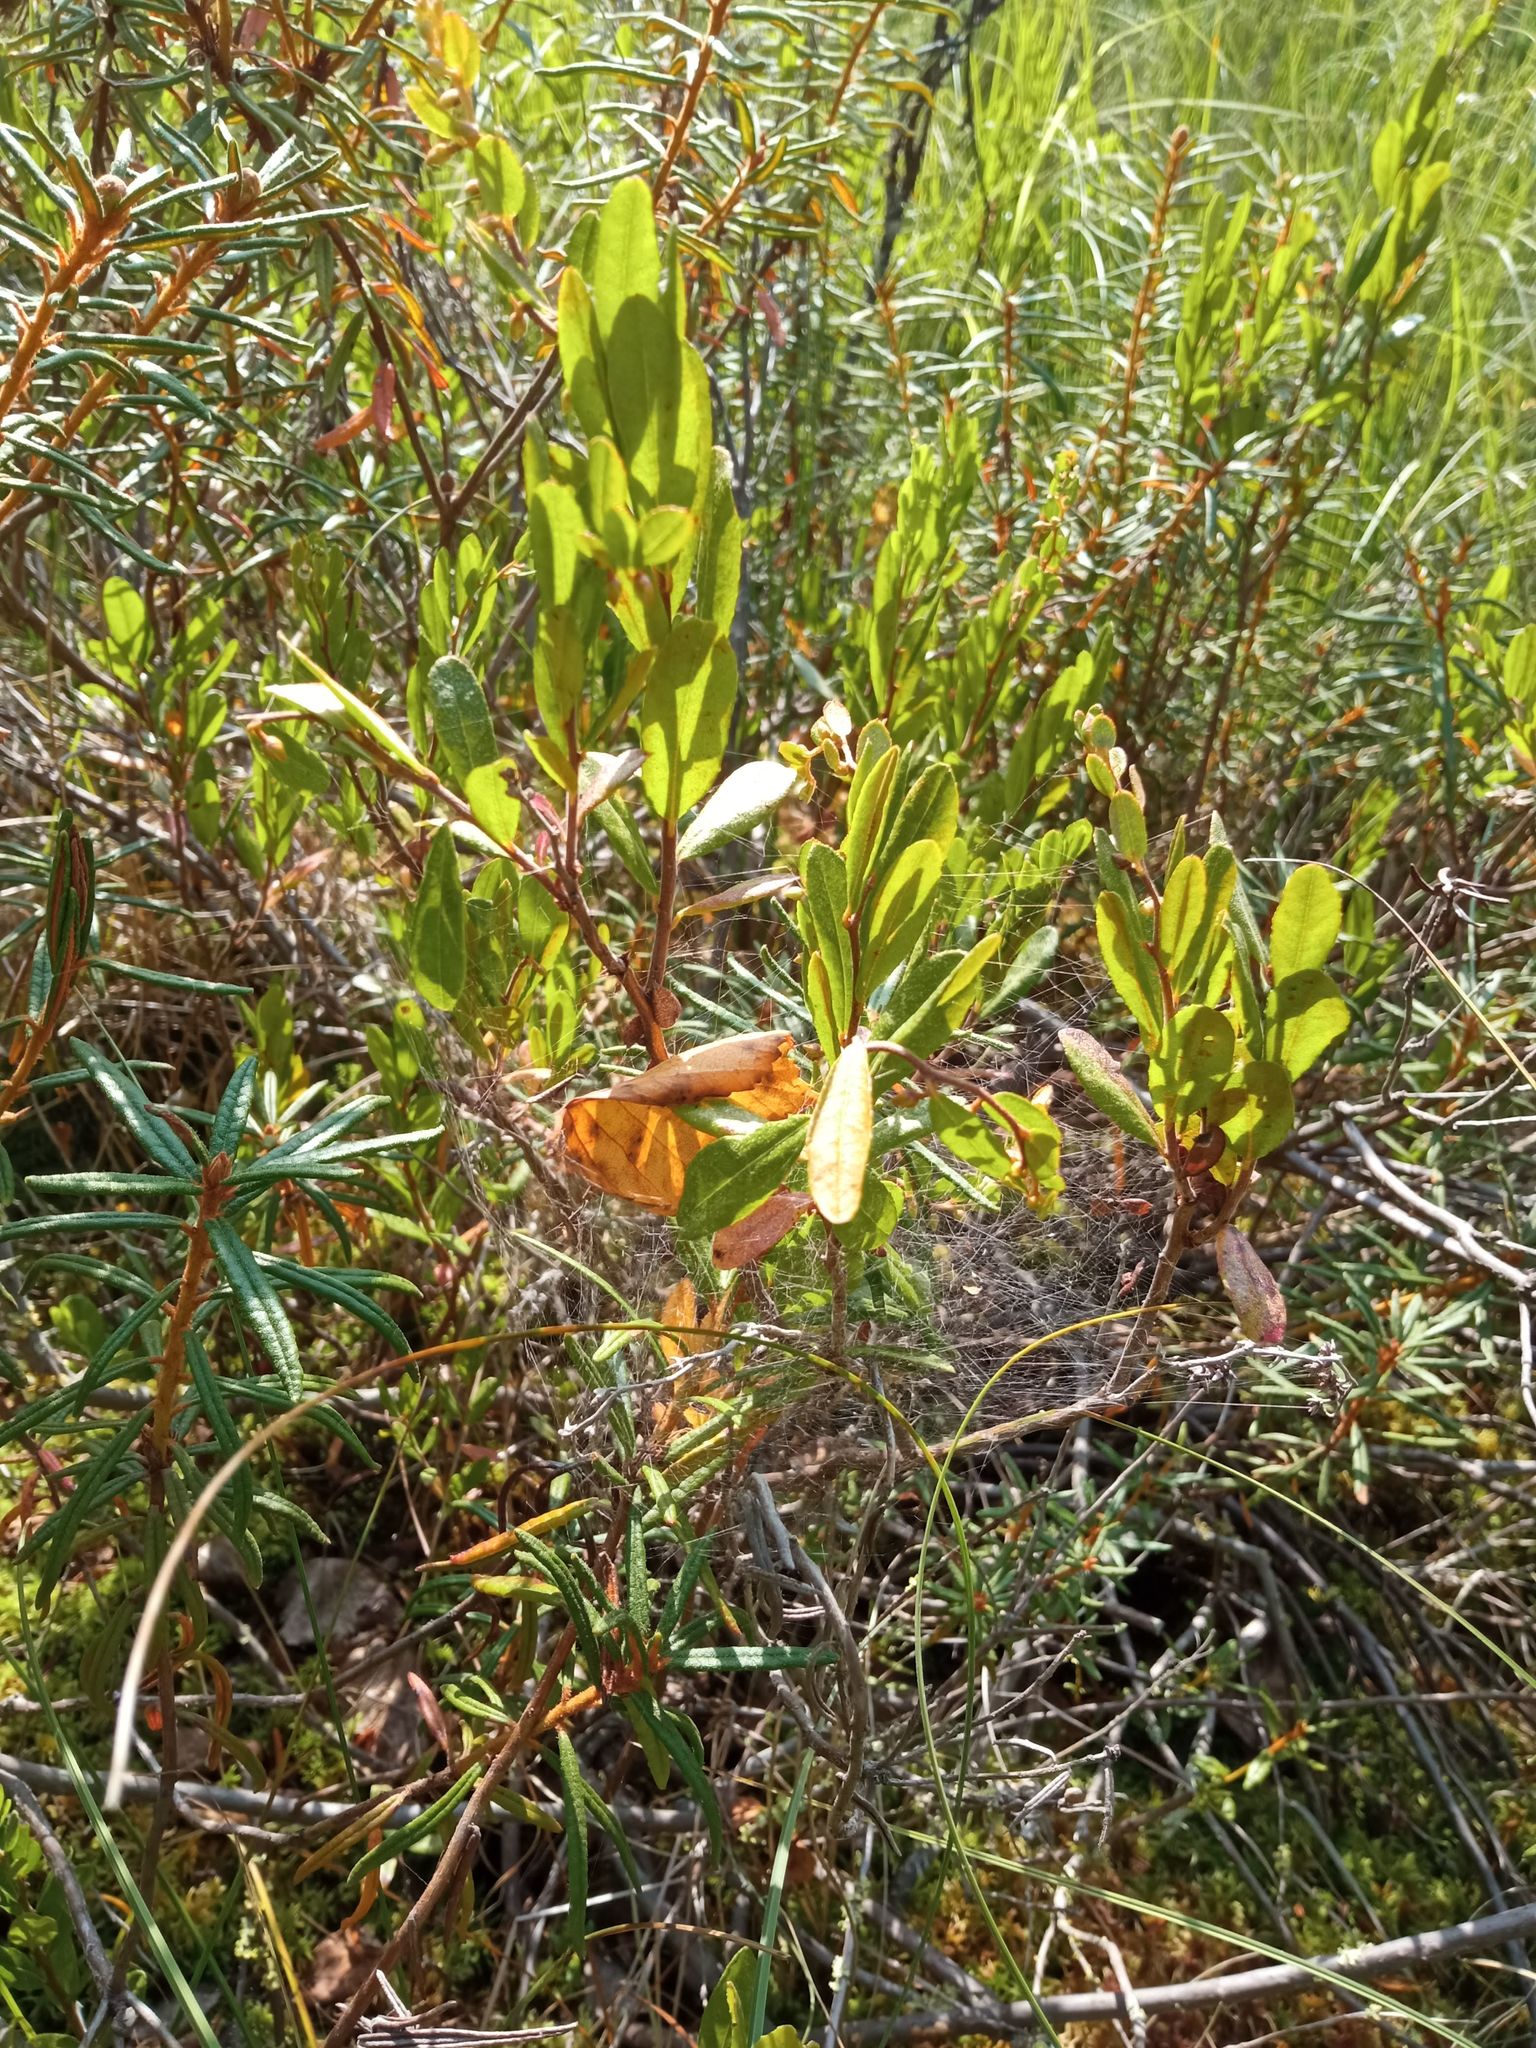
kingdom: Plantae
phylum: Tracheophyta
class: Magnoliopsida
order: Ericales
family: Ericaceae
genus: Chamaedaphne
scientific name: Chamaedaphne calyculata
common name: Leatherleaf
